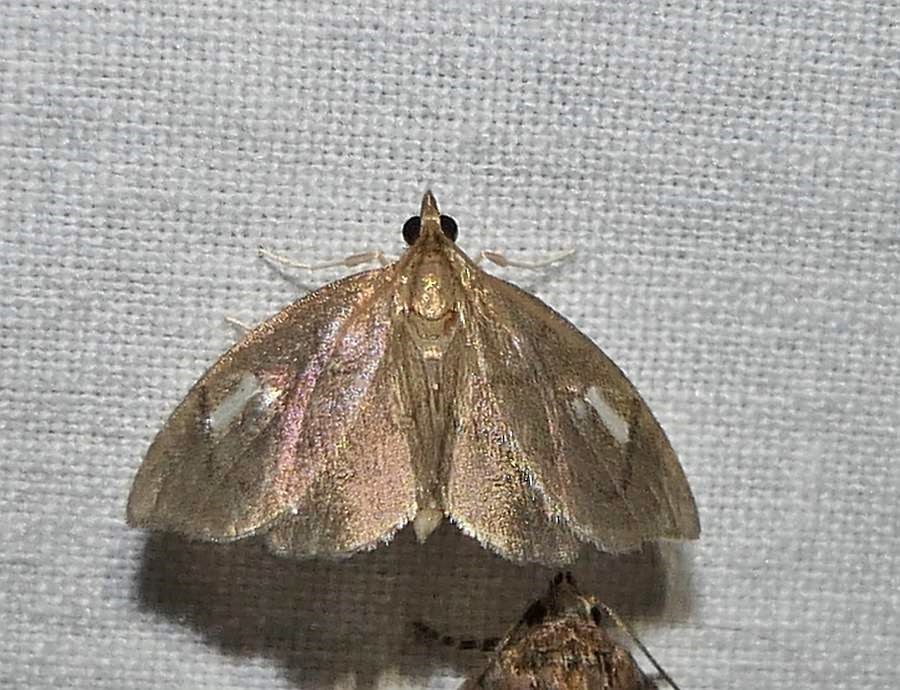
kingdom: Animalia
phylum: Arthropoda
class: Insecta
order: Lepidoptera
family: Crambidae
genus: Perispasta
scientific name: Perispasta caeculalis
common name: Titian peale's moth
